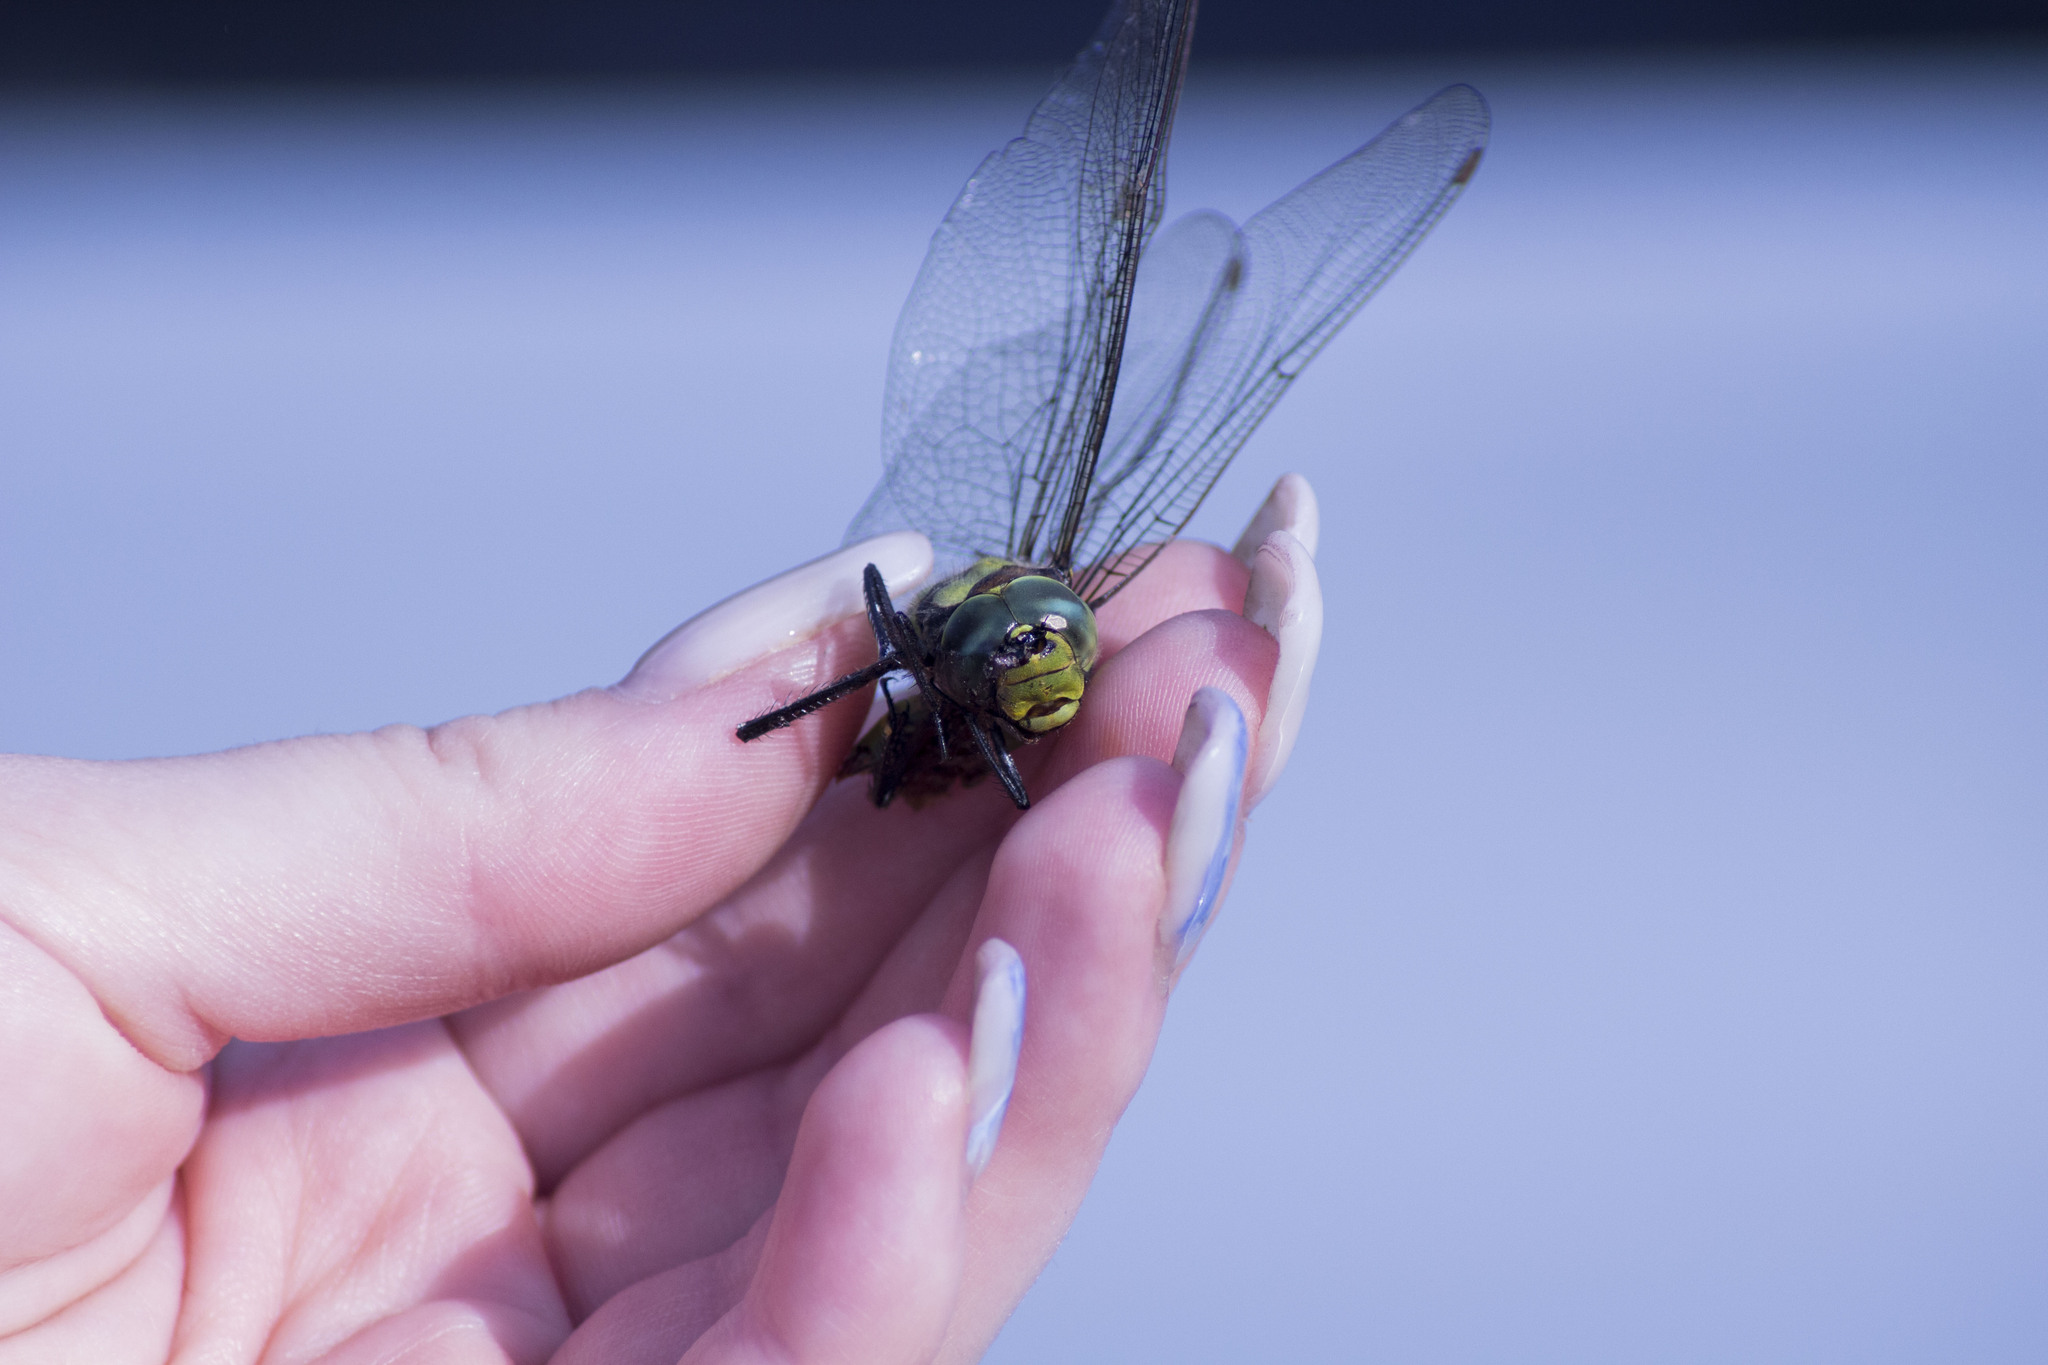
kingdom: Animalia
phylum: Arthropoda
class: Insecta
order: Odonata
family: Aeshnidae
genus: Aeshna
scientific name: Aeshna cyanea
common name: Southern hawker
